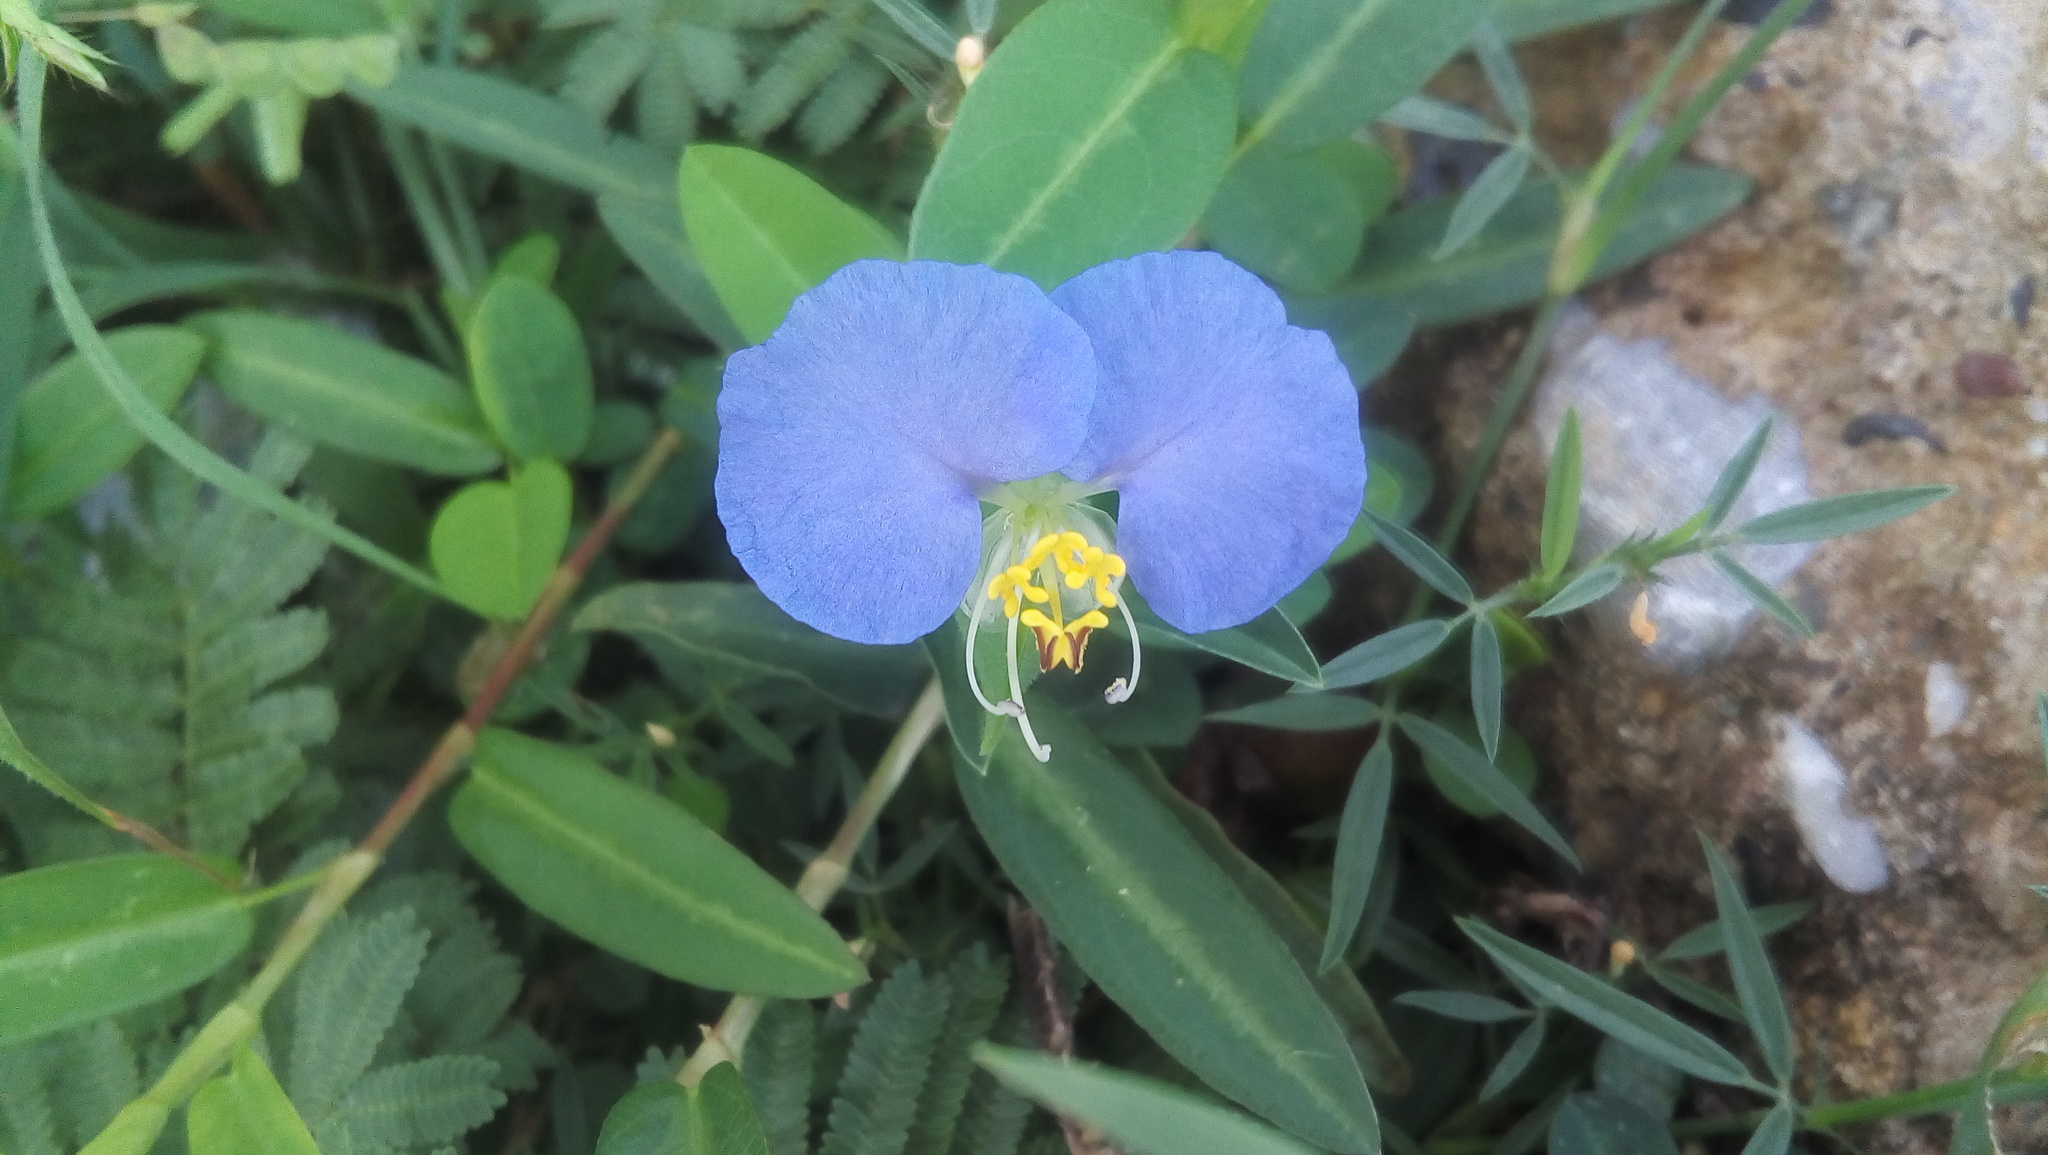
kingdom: Plantae
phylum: Tracheophyta
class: Liliopsida
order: Commelinales
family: Commelinaceae
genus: Commelina
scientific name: Commelina erecta
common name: Blousel blommetjie
